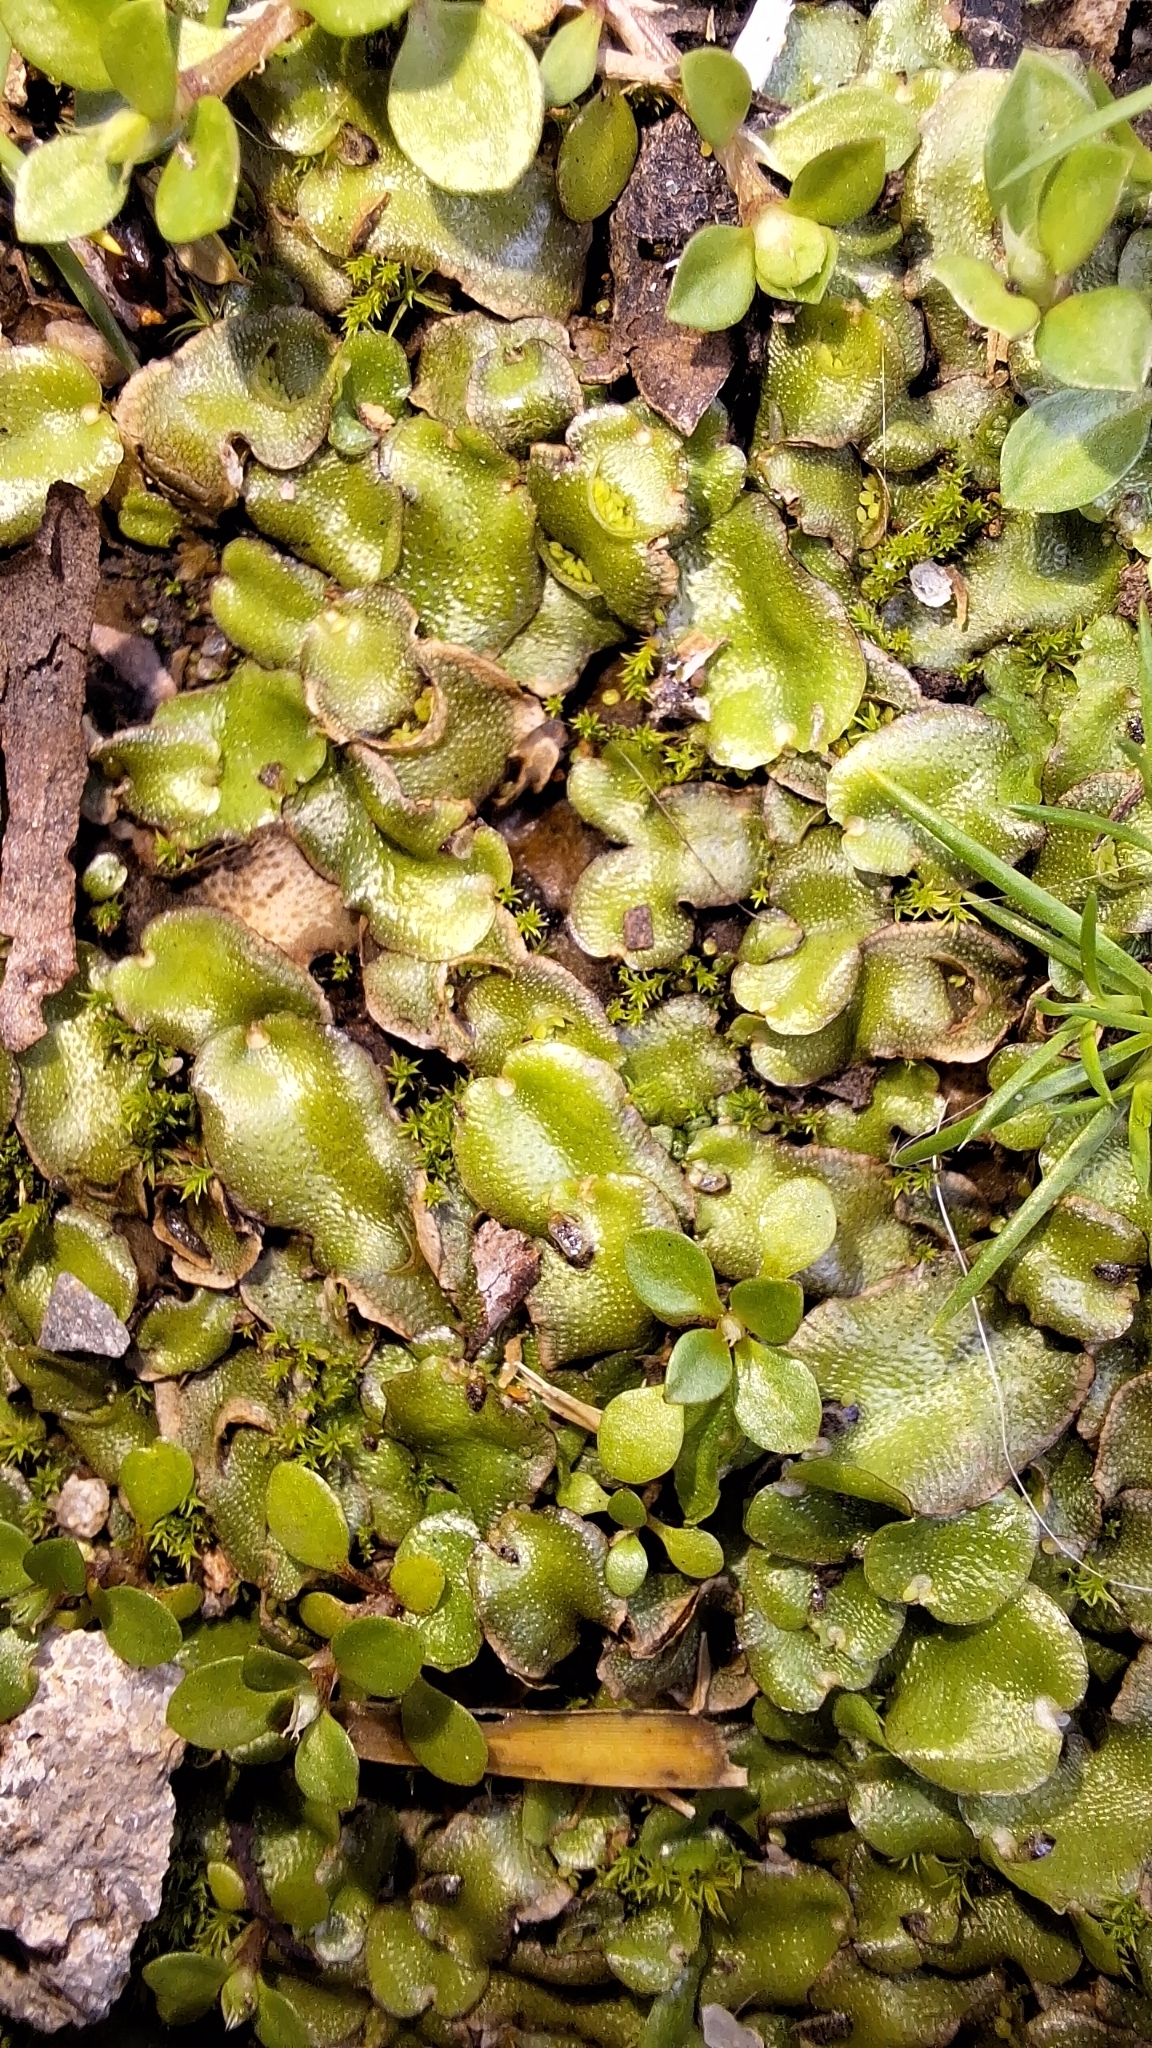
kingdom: Plantae
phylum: Marchantiophyta
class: Marchantiopsida
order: Lunulariales
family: Lunulariaceae
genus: Lunularia
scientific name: Lunularia cruciata
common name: Crescent-cup liverwort
